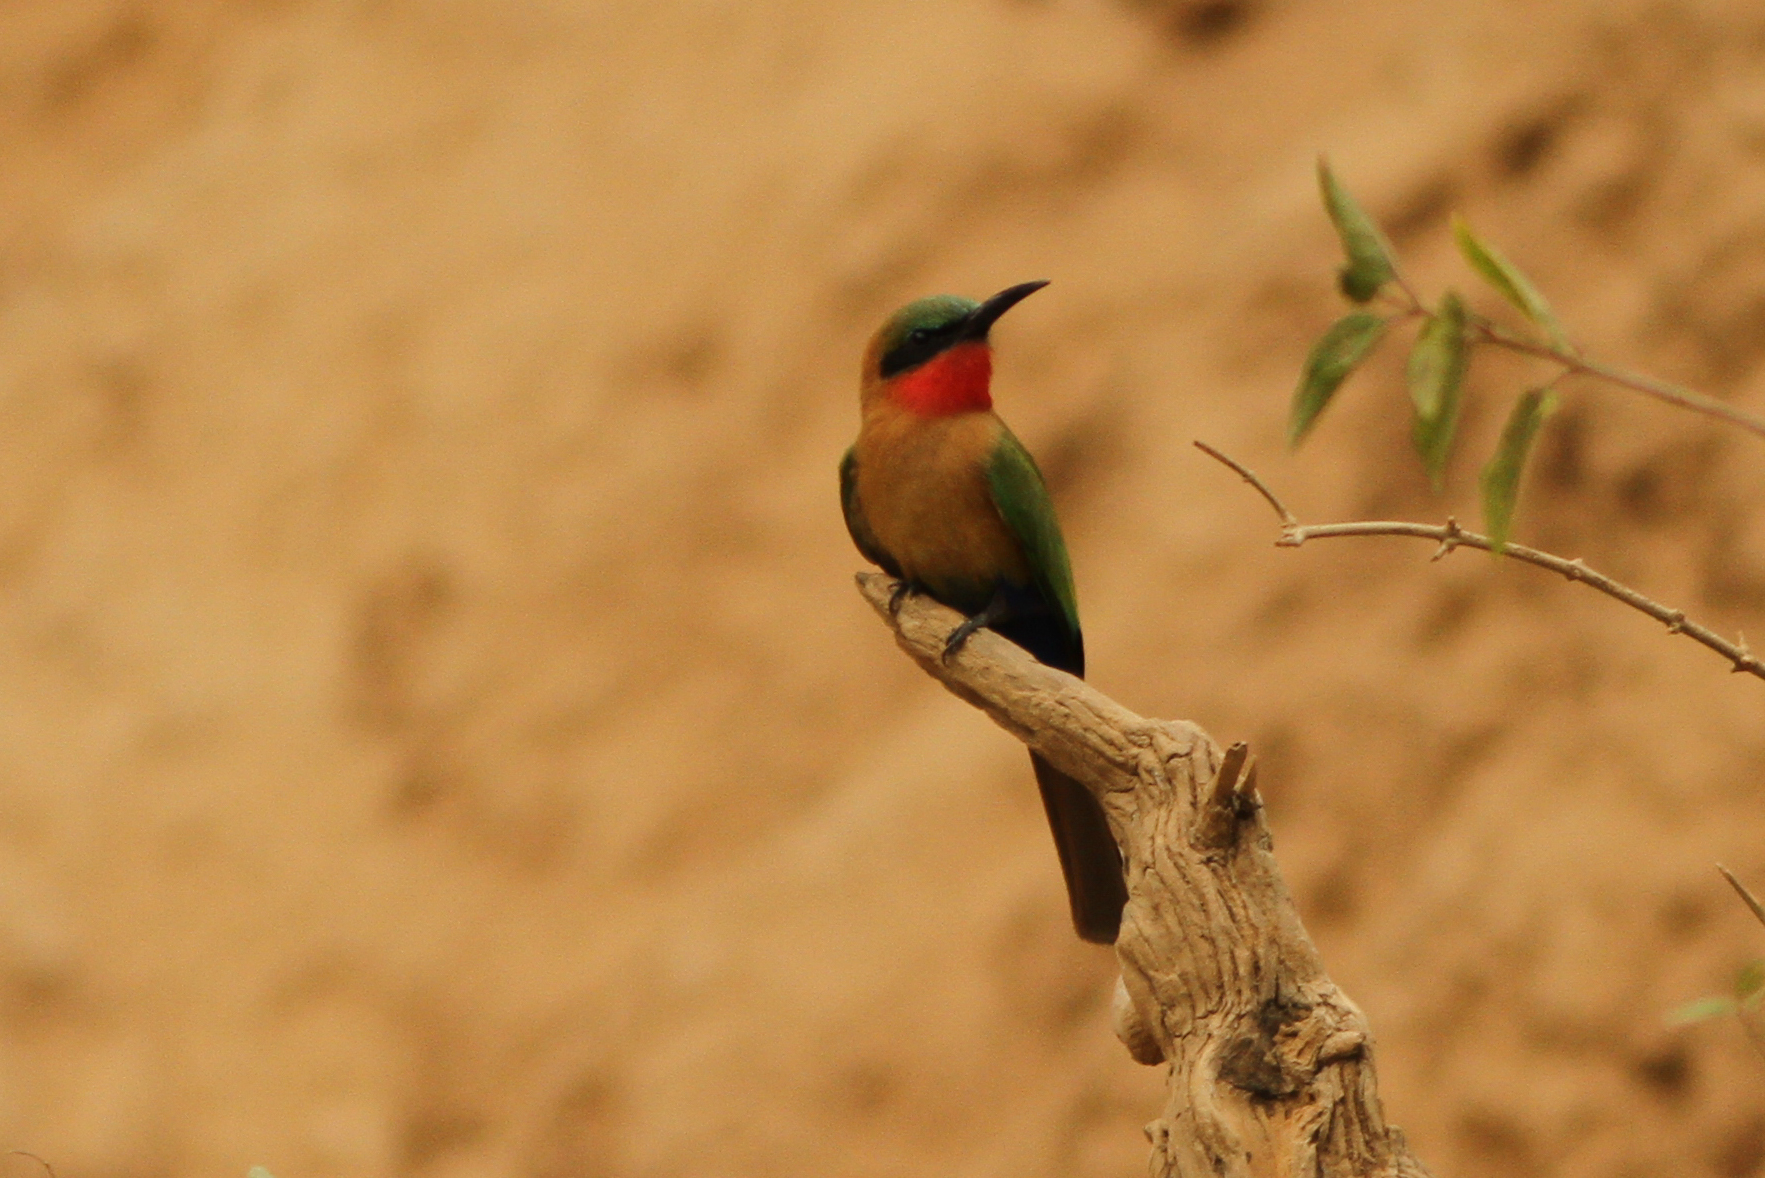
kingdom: Animalia
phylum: Chordata
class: Aves
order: Coraciiformes
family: Meropidae
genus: Merops
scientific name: Merops bulocki
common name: Red-throated bee-eater
